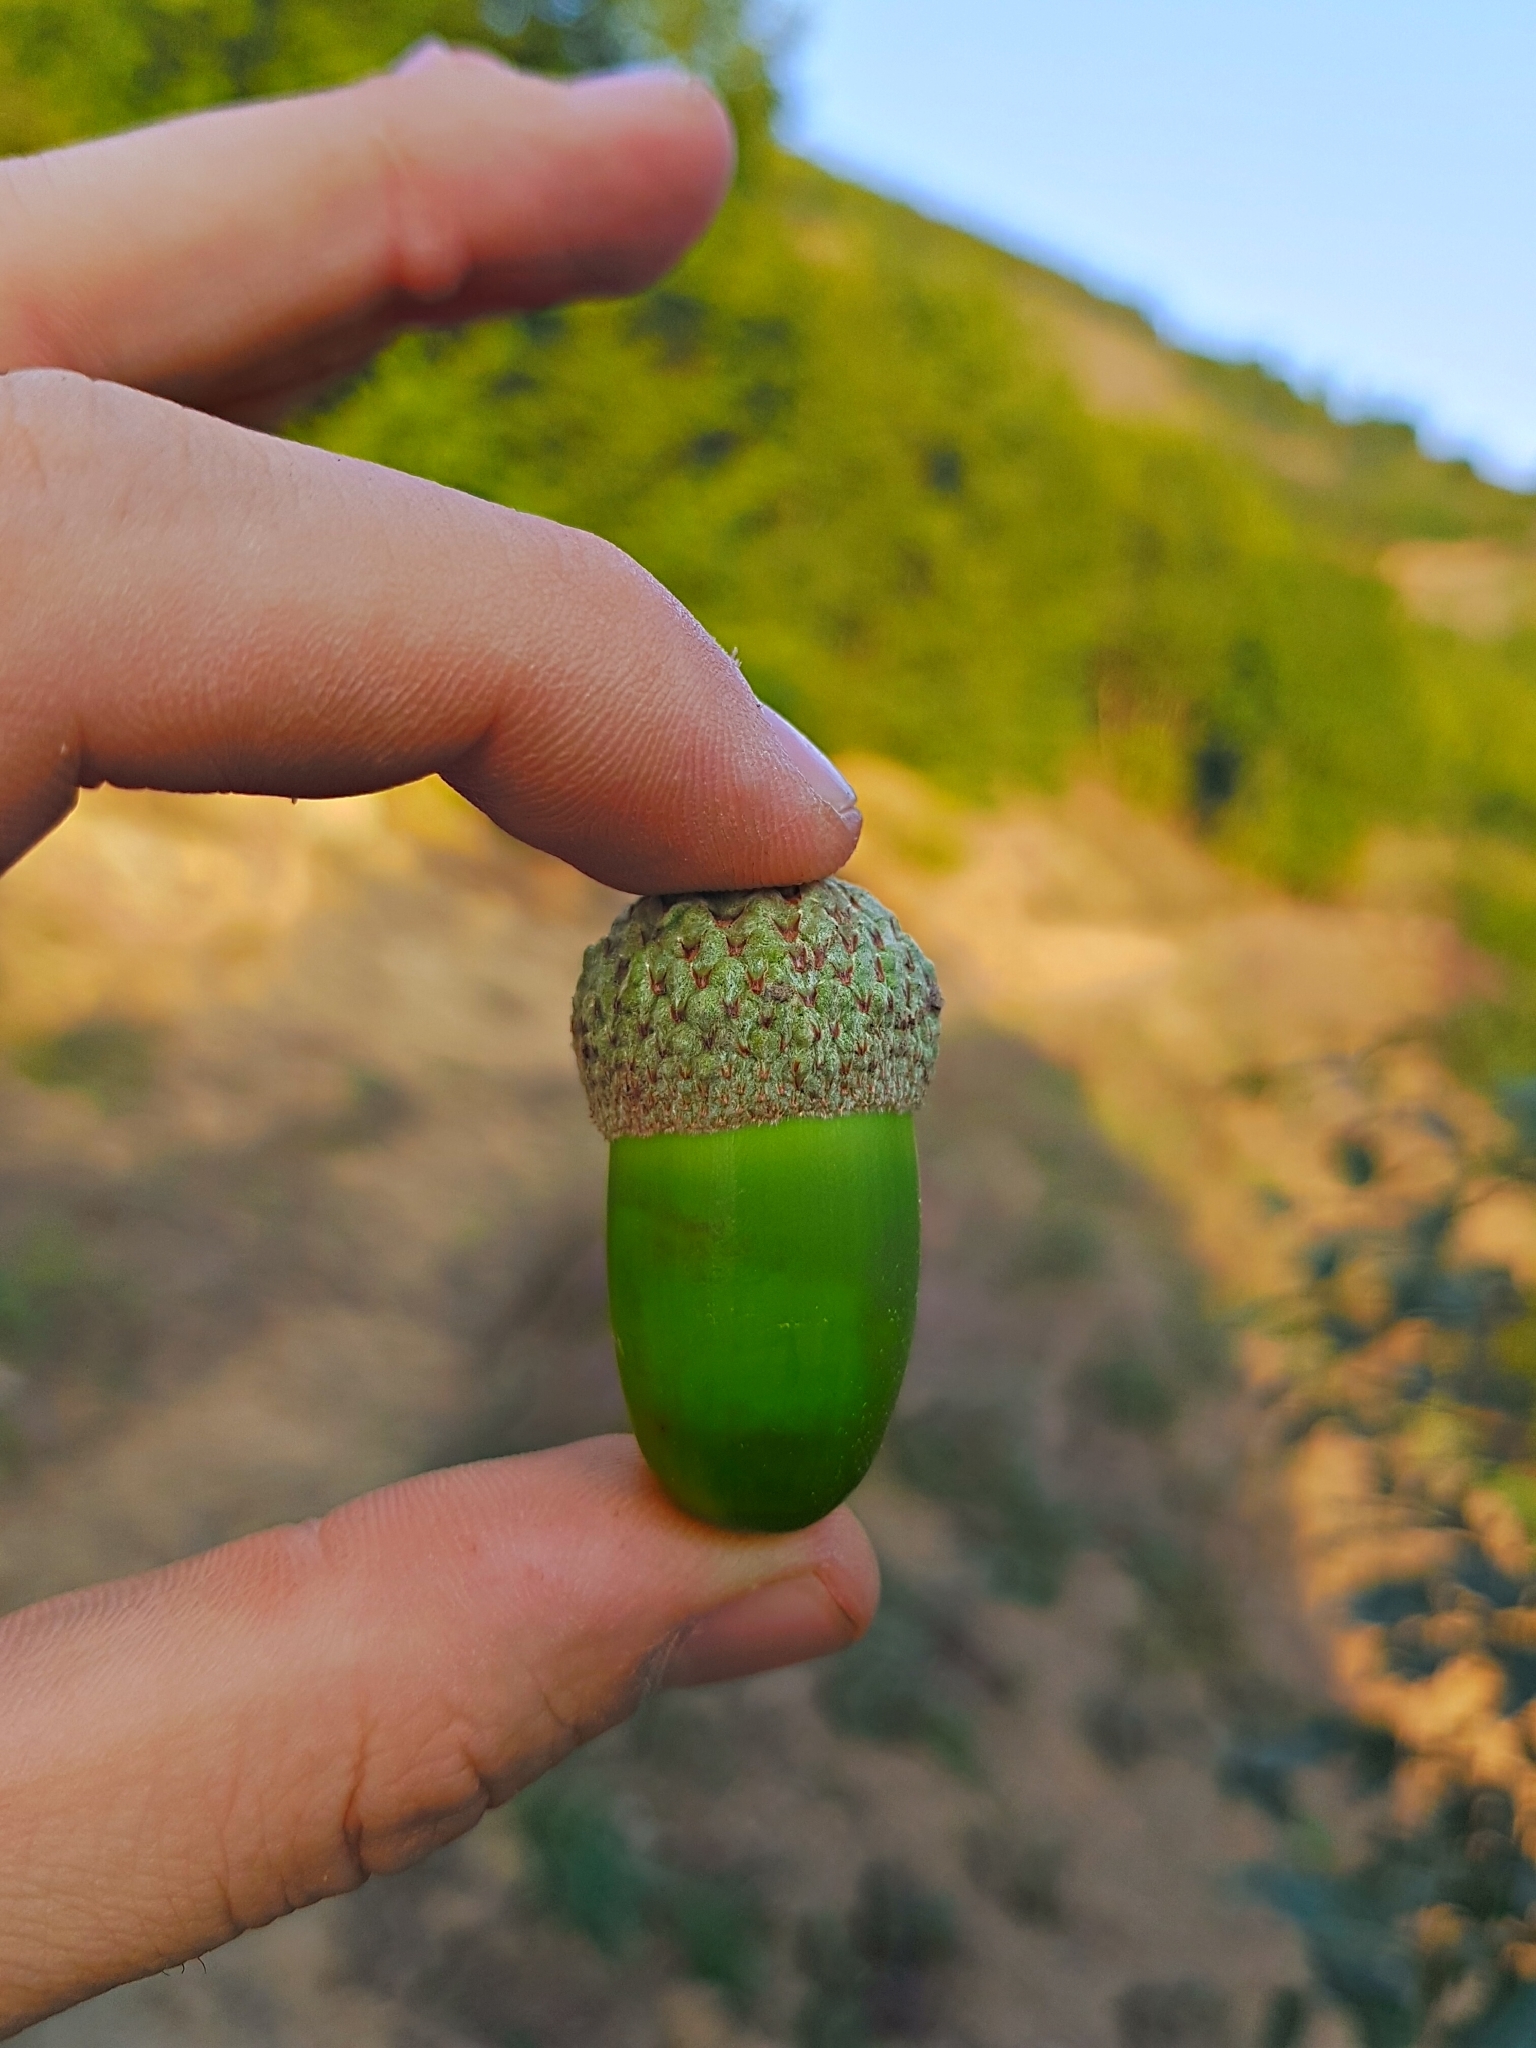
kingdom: Plantae
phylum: Tracheophyta
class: Magnoliopsida
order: Fagales
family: Fagaceae
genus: Quercus
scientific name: Quercus macranthera
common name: Caucasian oak
